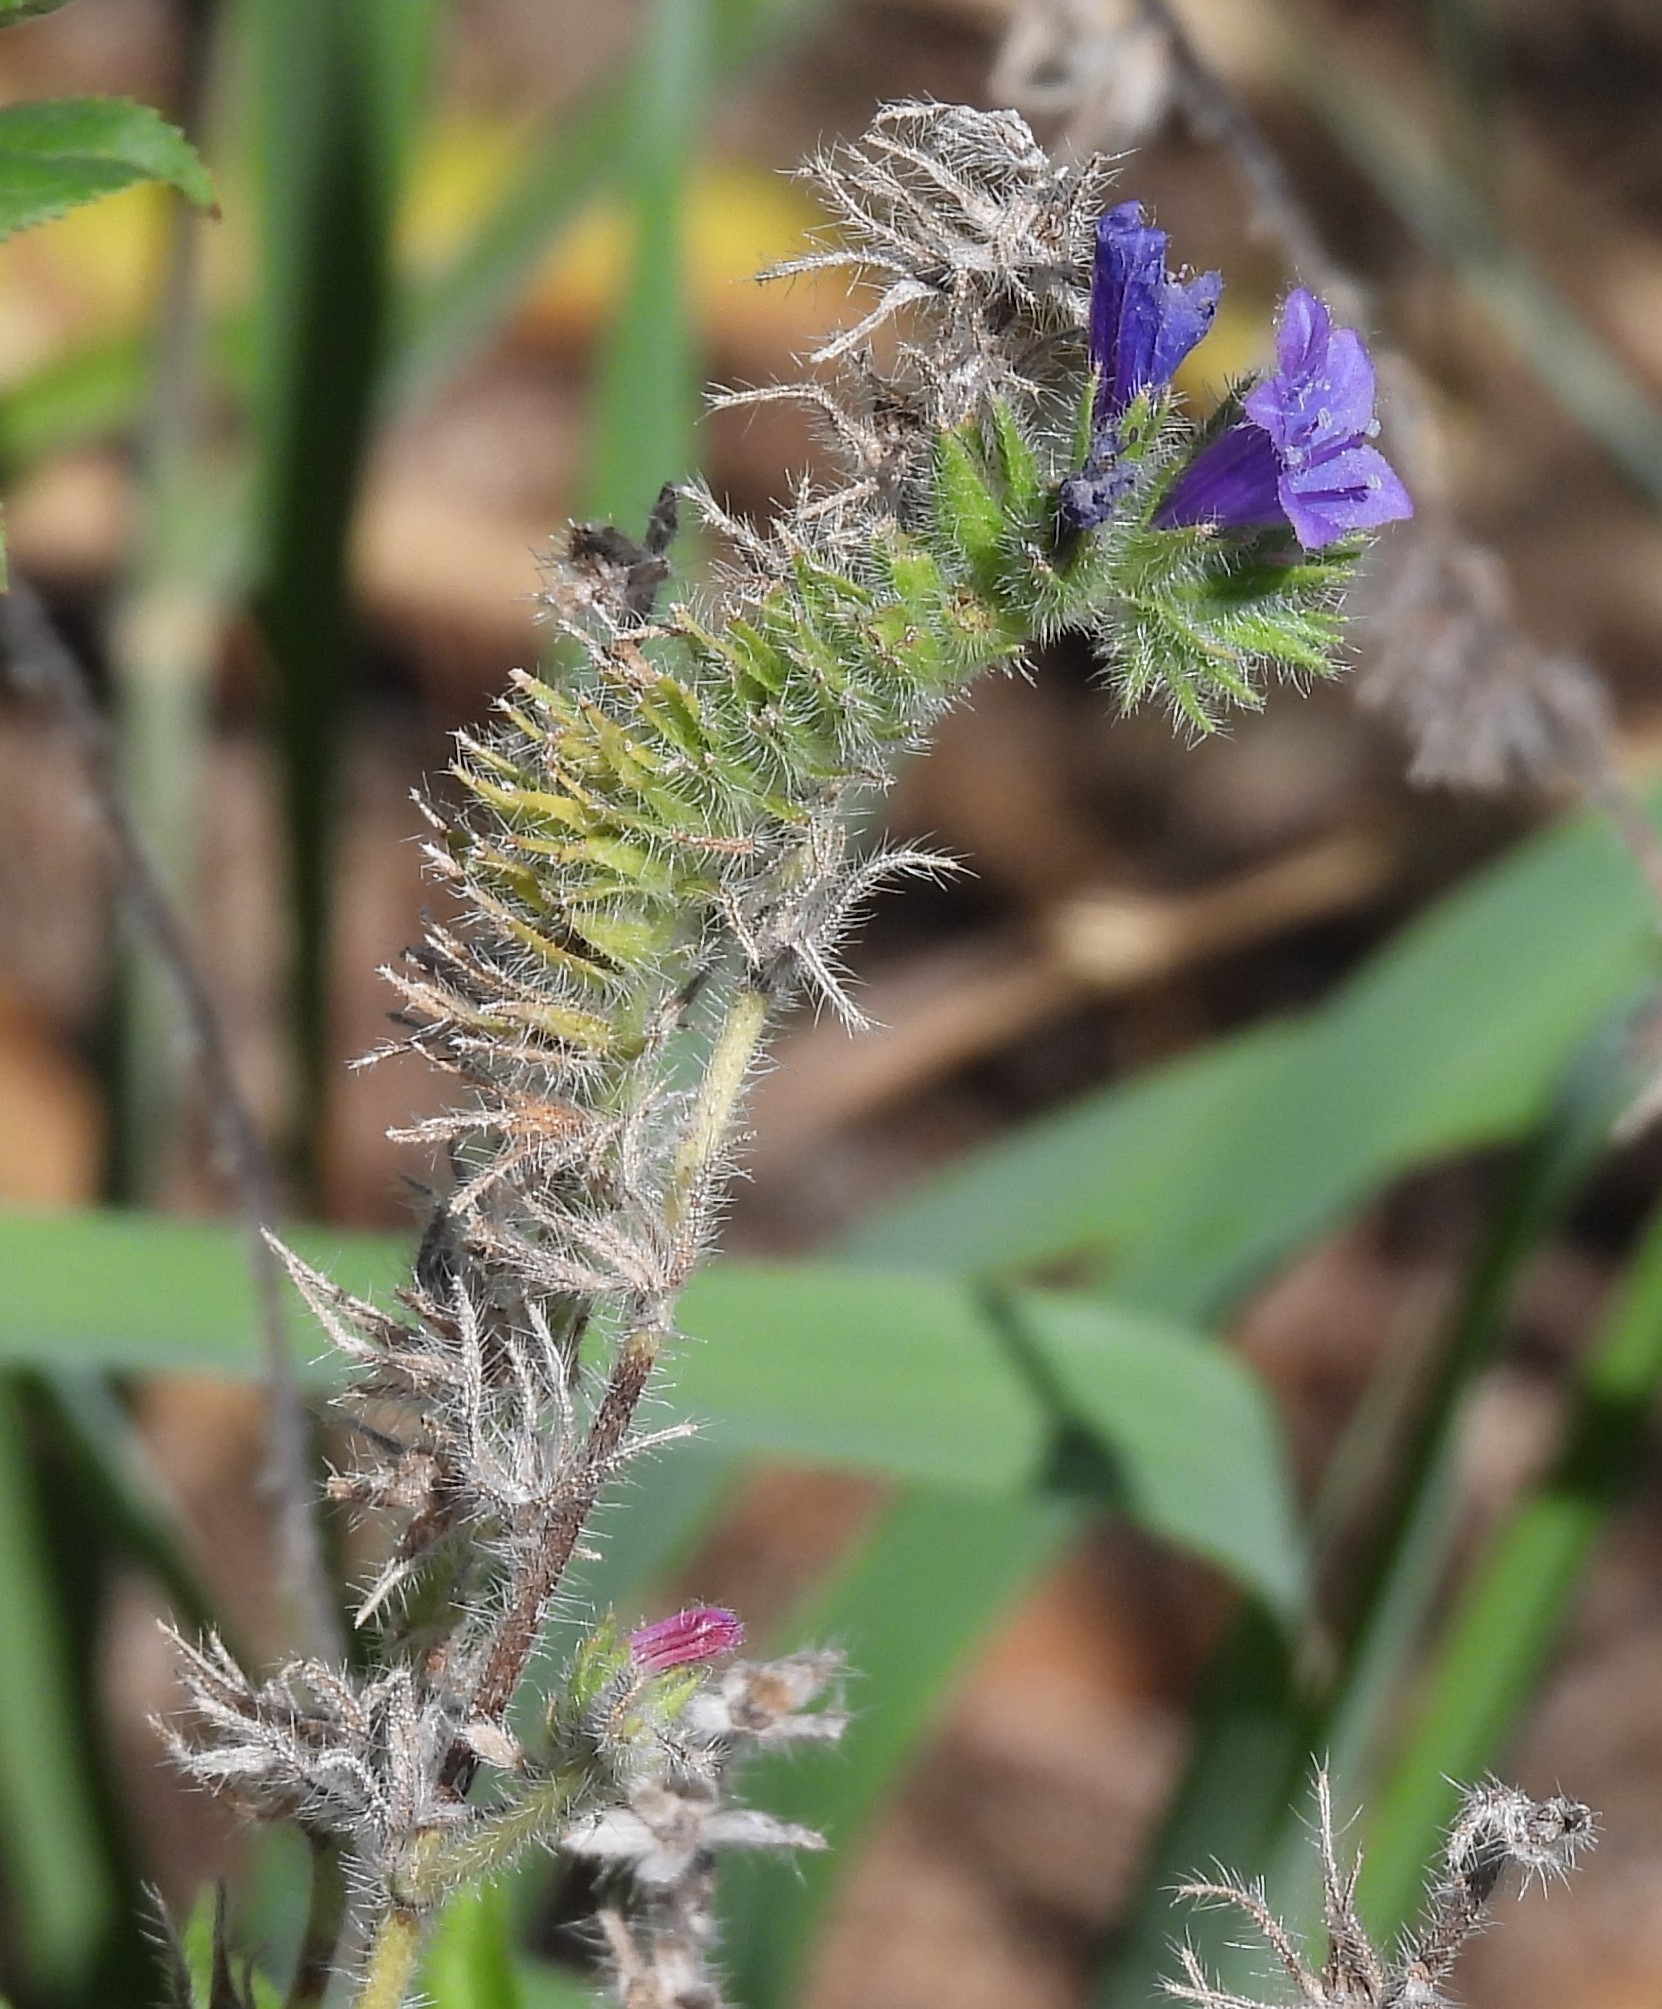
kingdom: Plantae
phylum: Tracheophyta
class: Magnoliopsida
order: Boraginales
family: Boraginaceae
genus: Echium
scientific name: Echium plantagineum
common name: Purple viper's-bugloss
